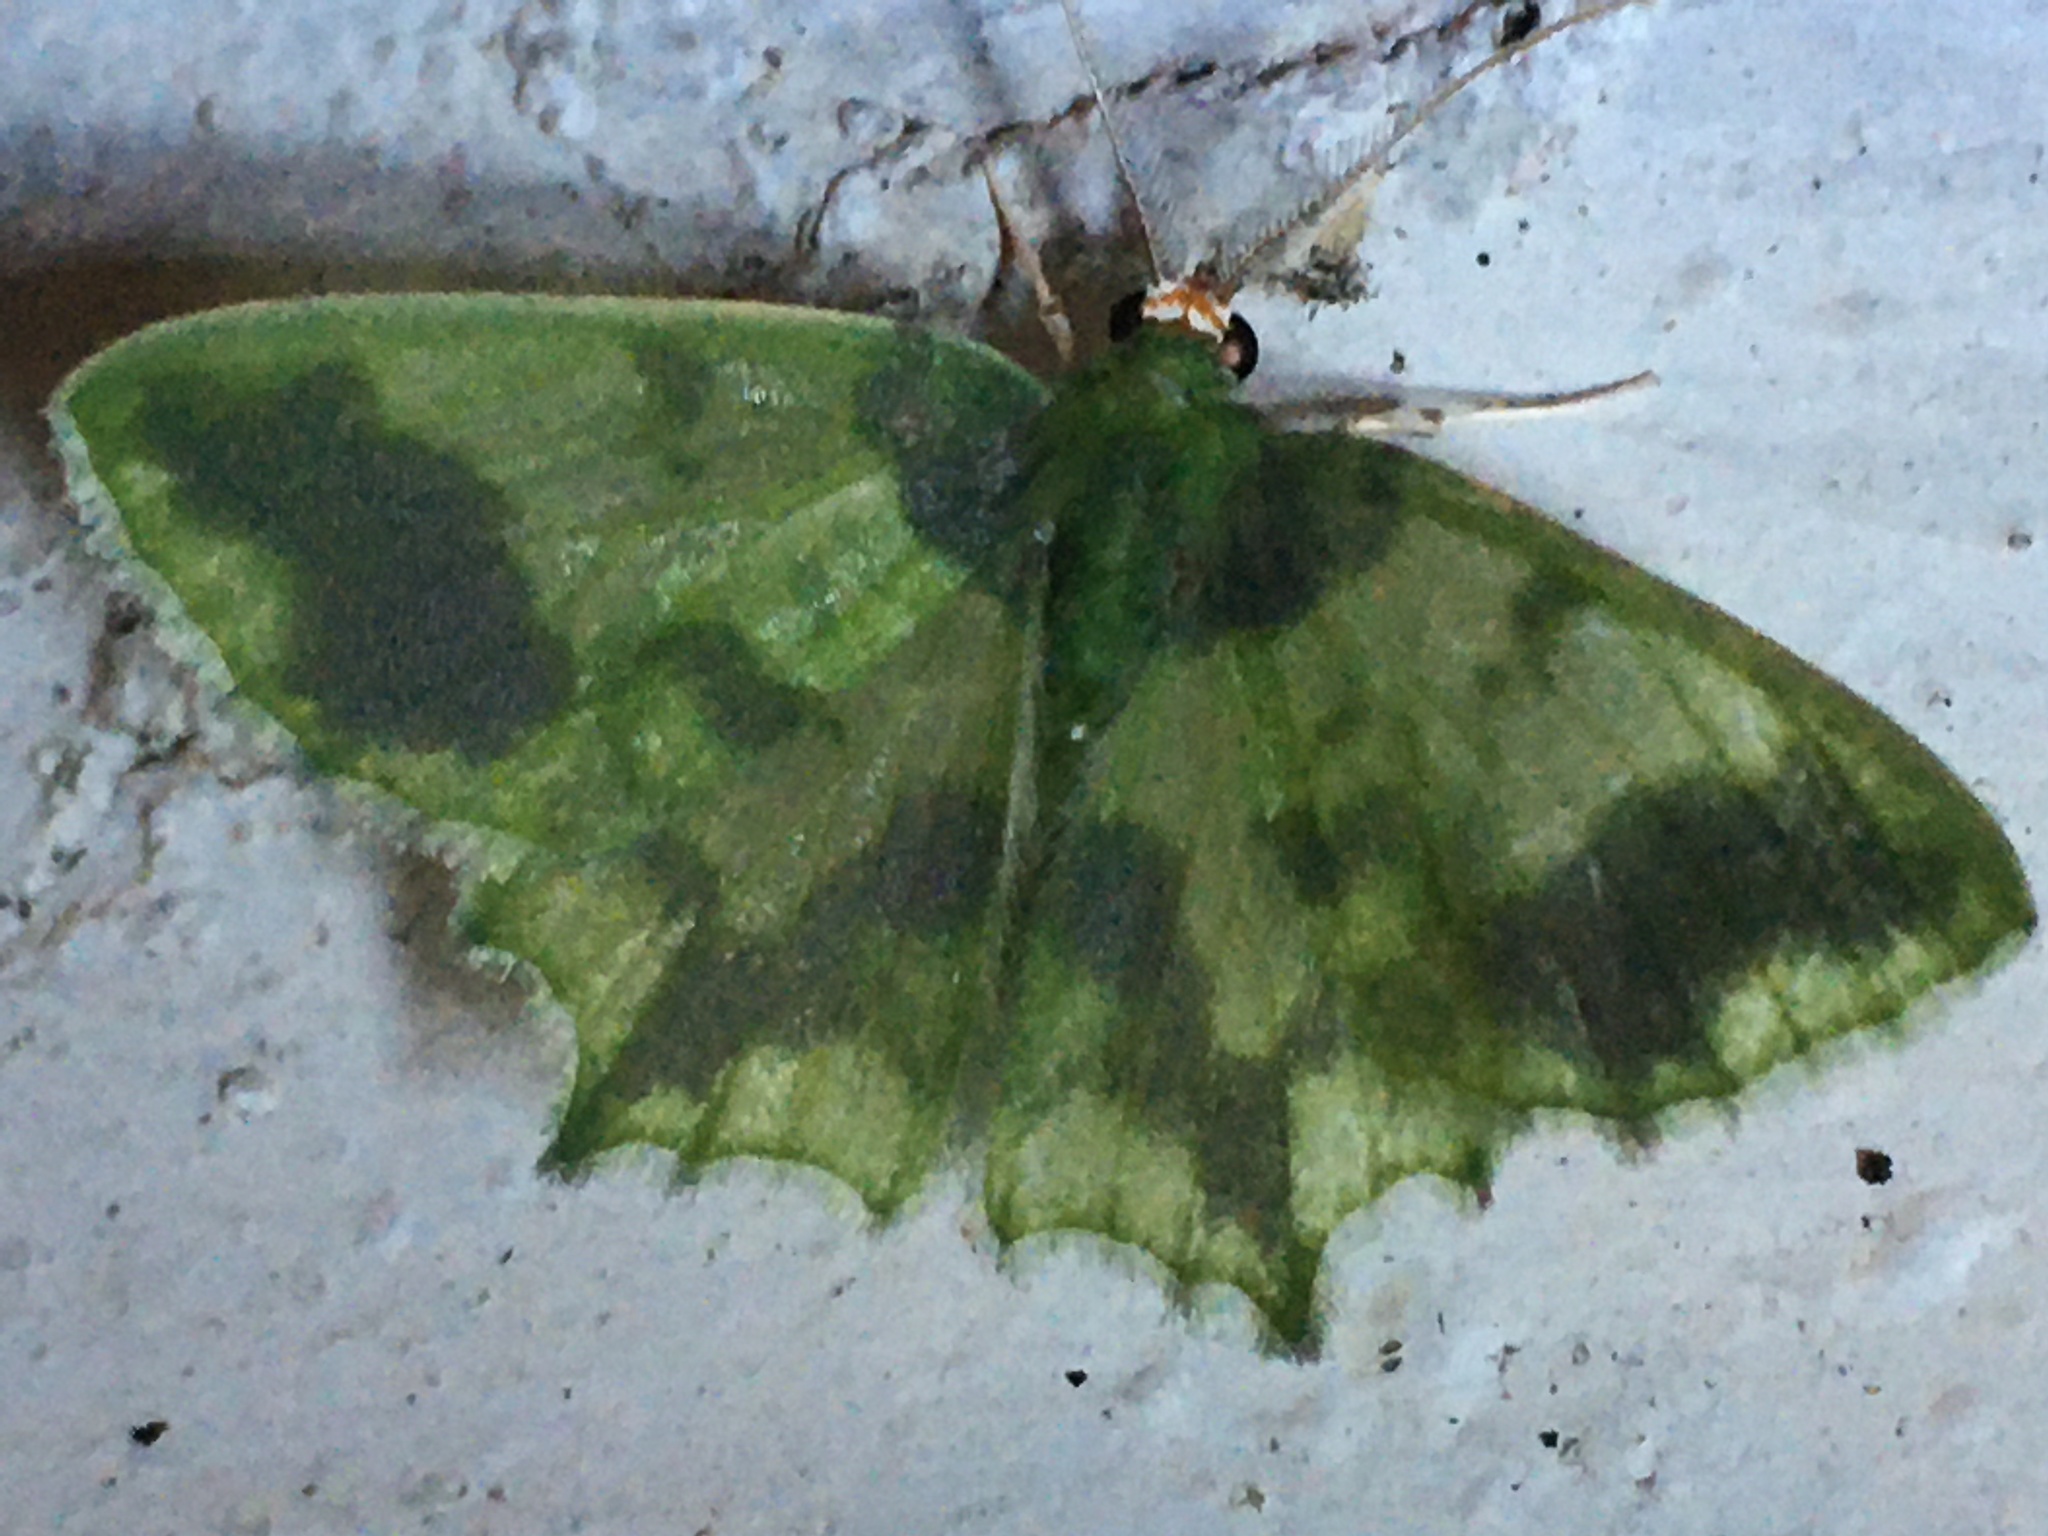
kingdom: Animalia
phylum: Arthropoda
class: Insecta
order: Lepidoptera
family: Geometridae
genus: Cathydata
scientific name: Cathydata batina
